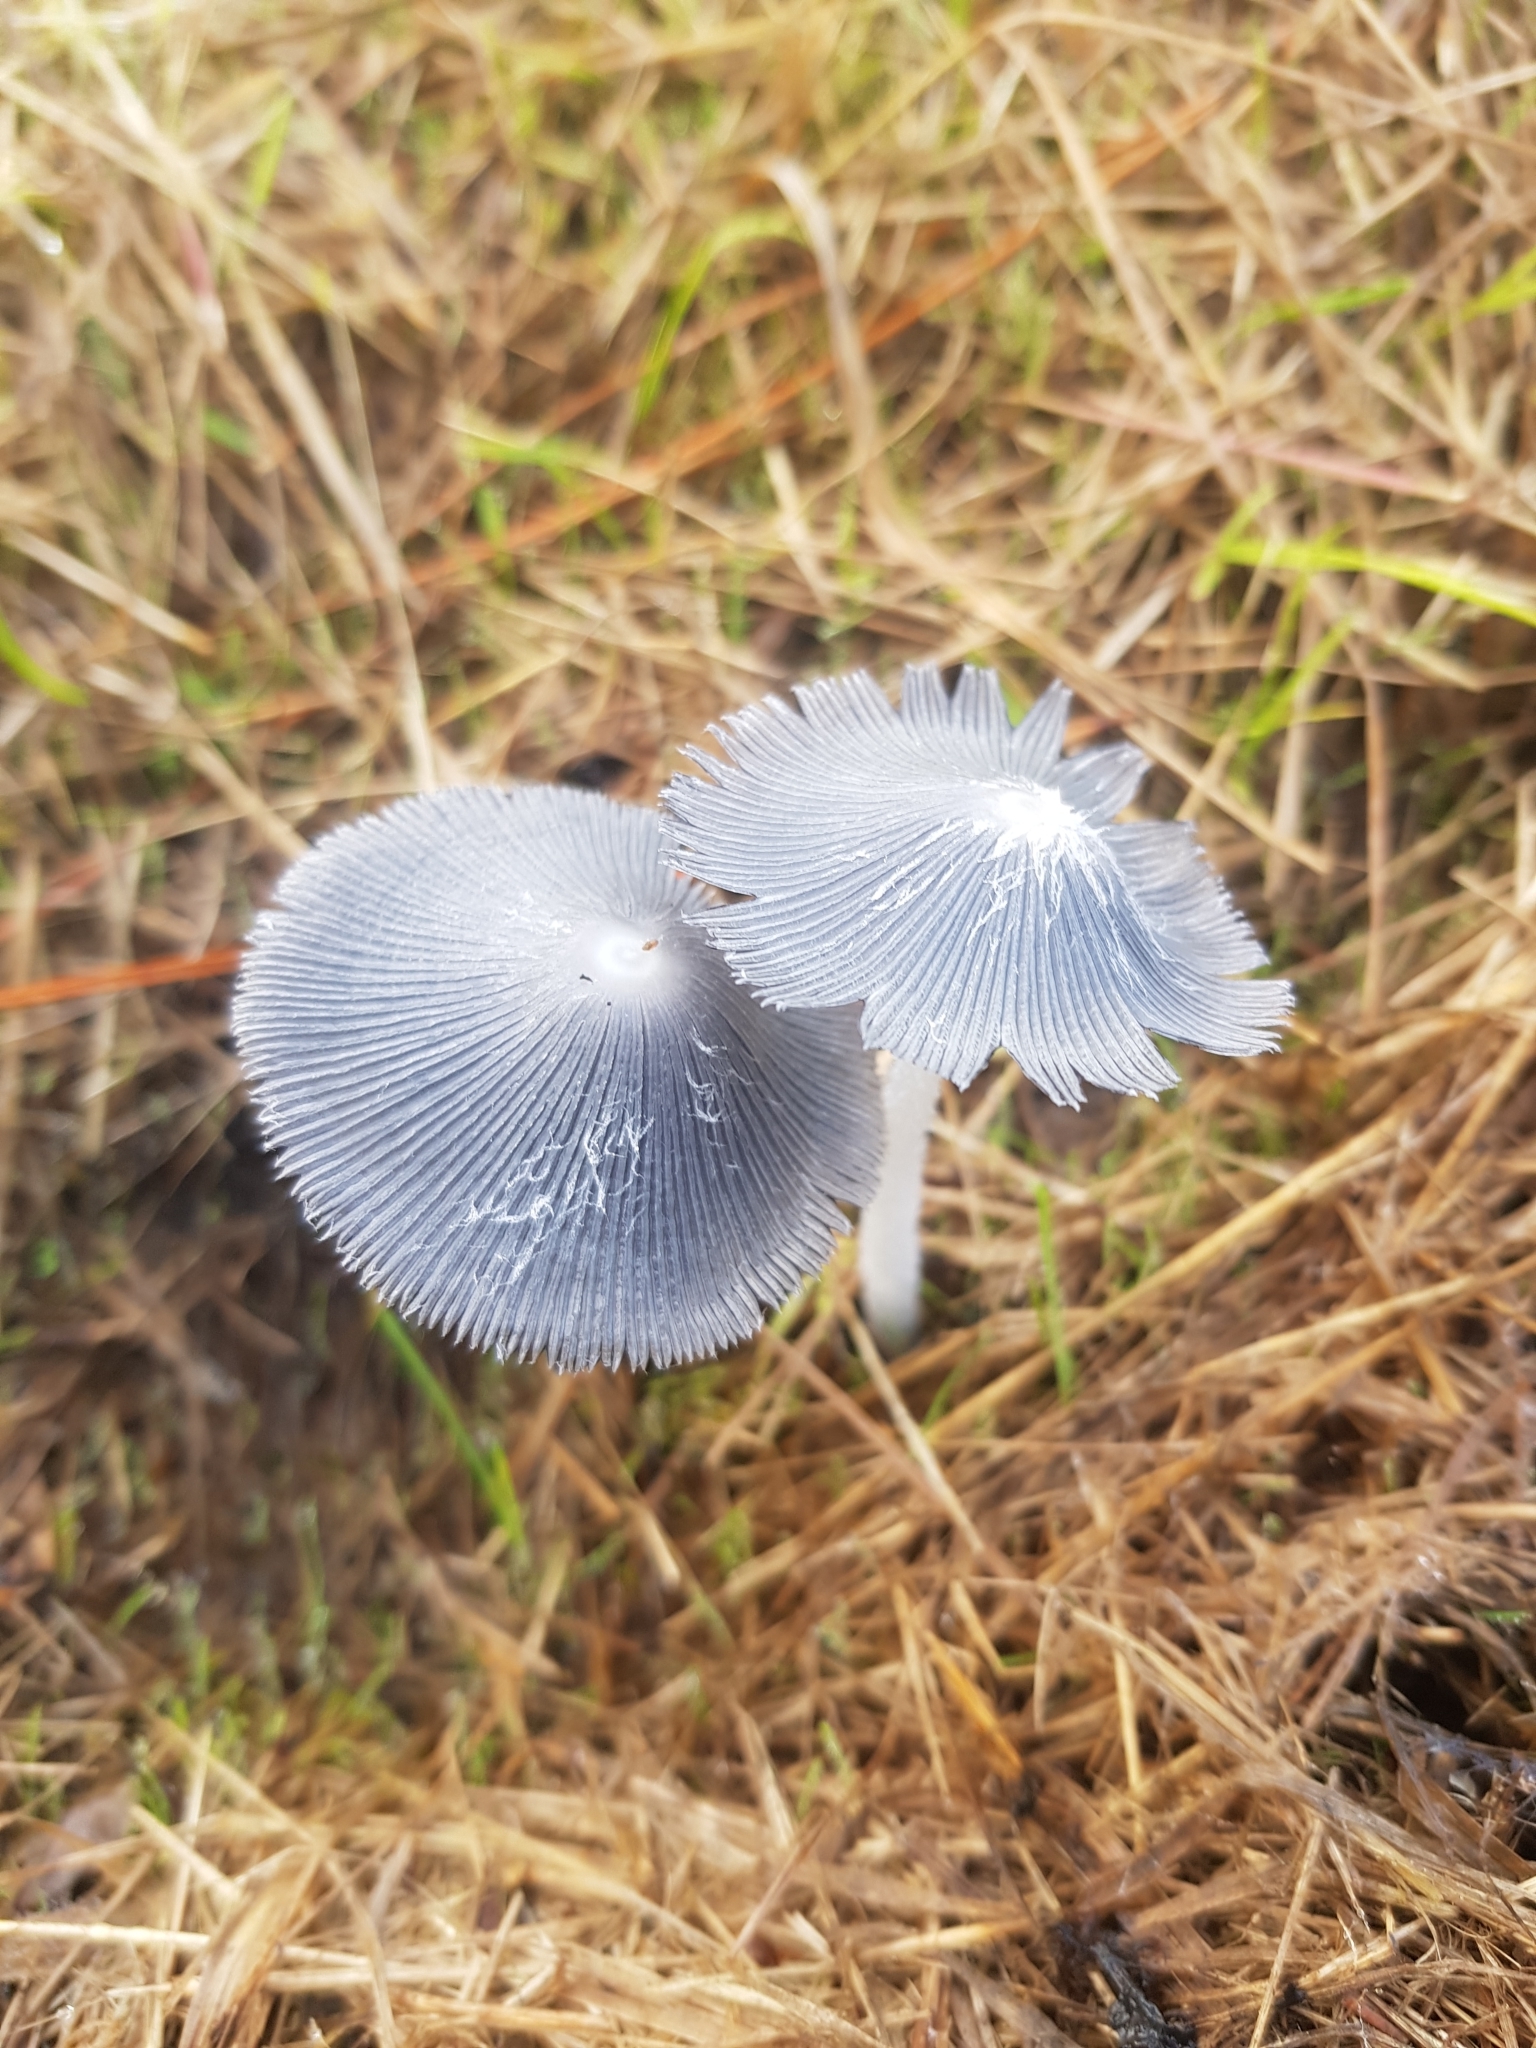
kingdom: Fungi
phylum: Basidiomycota
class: Agaricomycetes
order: Agaricales
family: Psathyrellaceae
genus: Coprinopsis
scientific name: Coprinopsis lagopus
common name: Hare'sfoot inkcap
